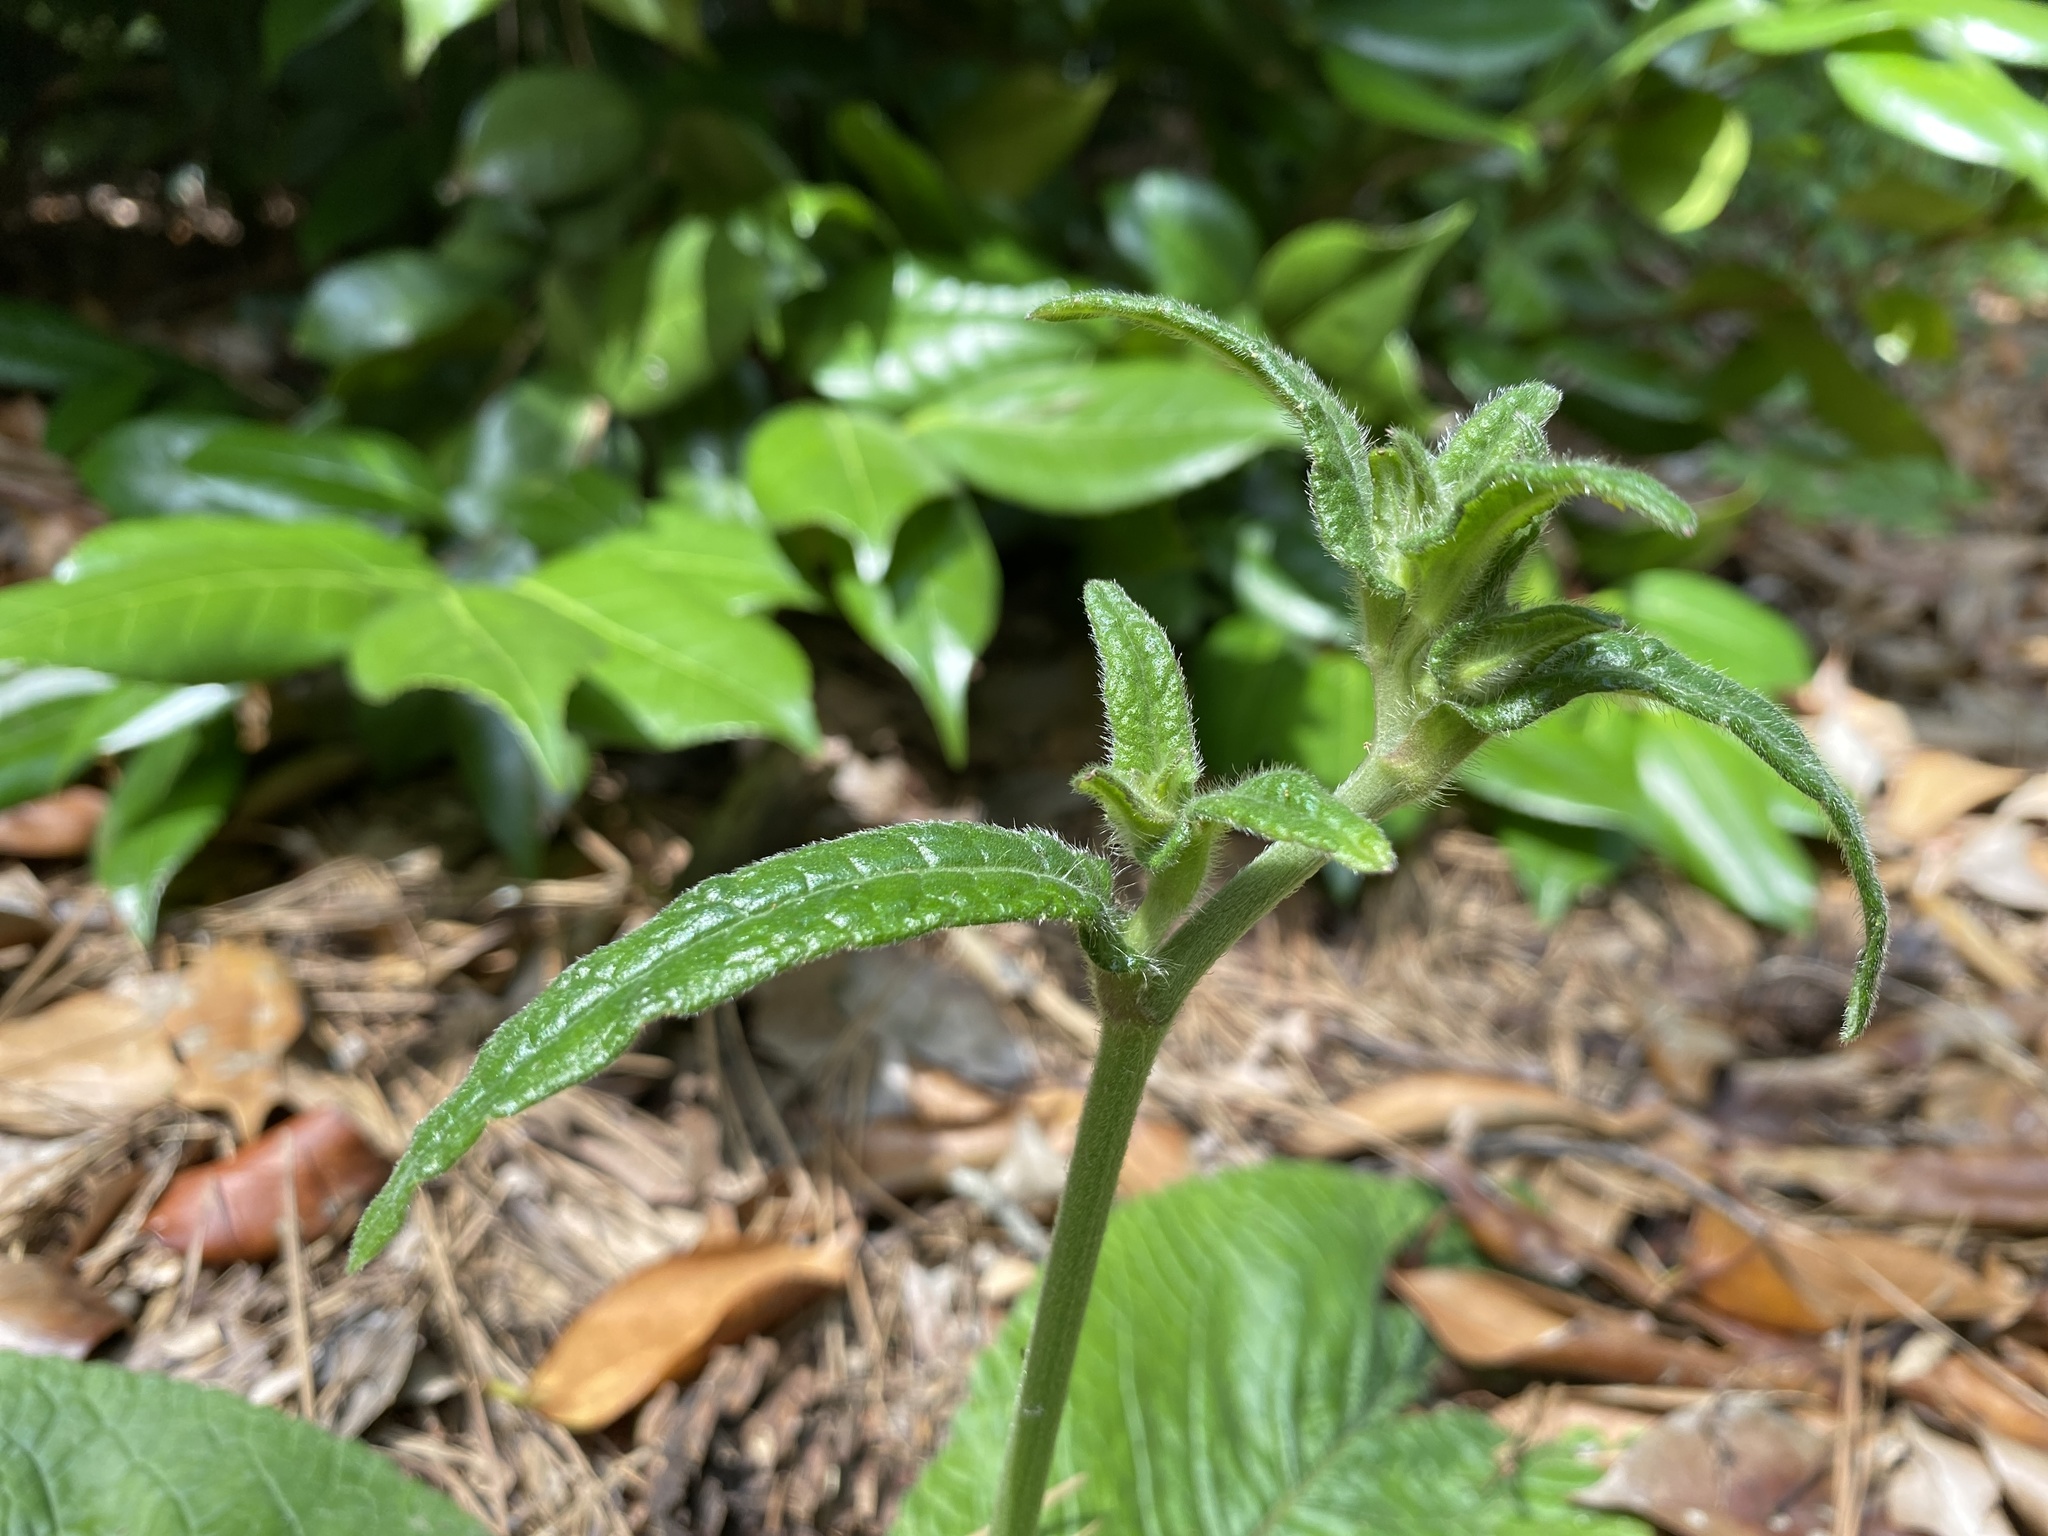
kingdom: Plantae
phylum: Tracheophyta
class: Magnoliopsida
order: Asterales
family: Asteraceae
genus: Elephantopus
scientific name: Elephantopus tomentosus
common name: Tobacco-weed
